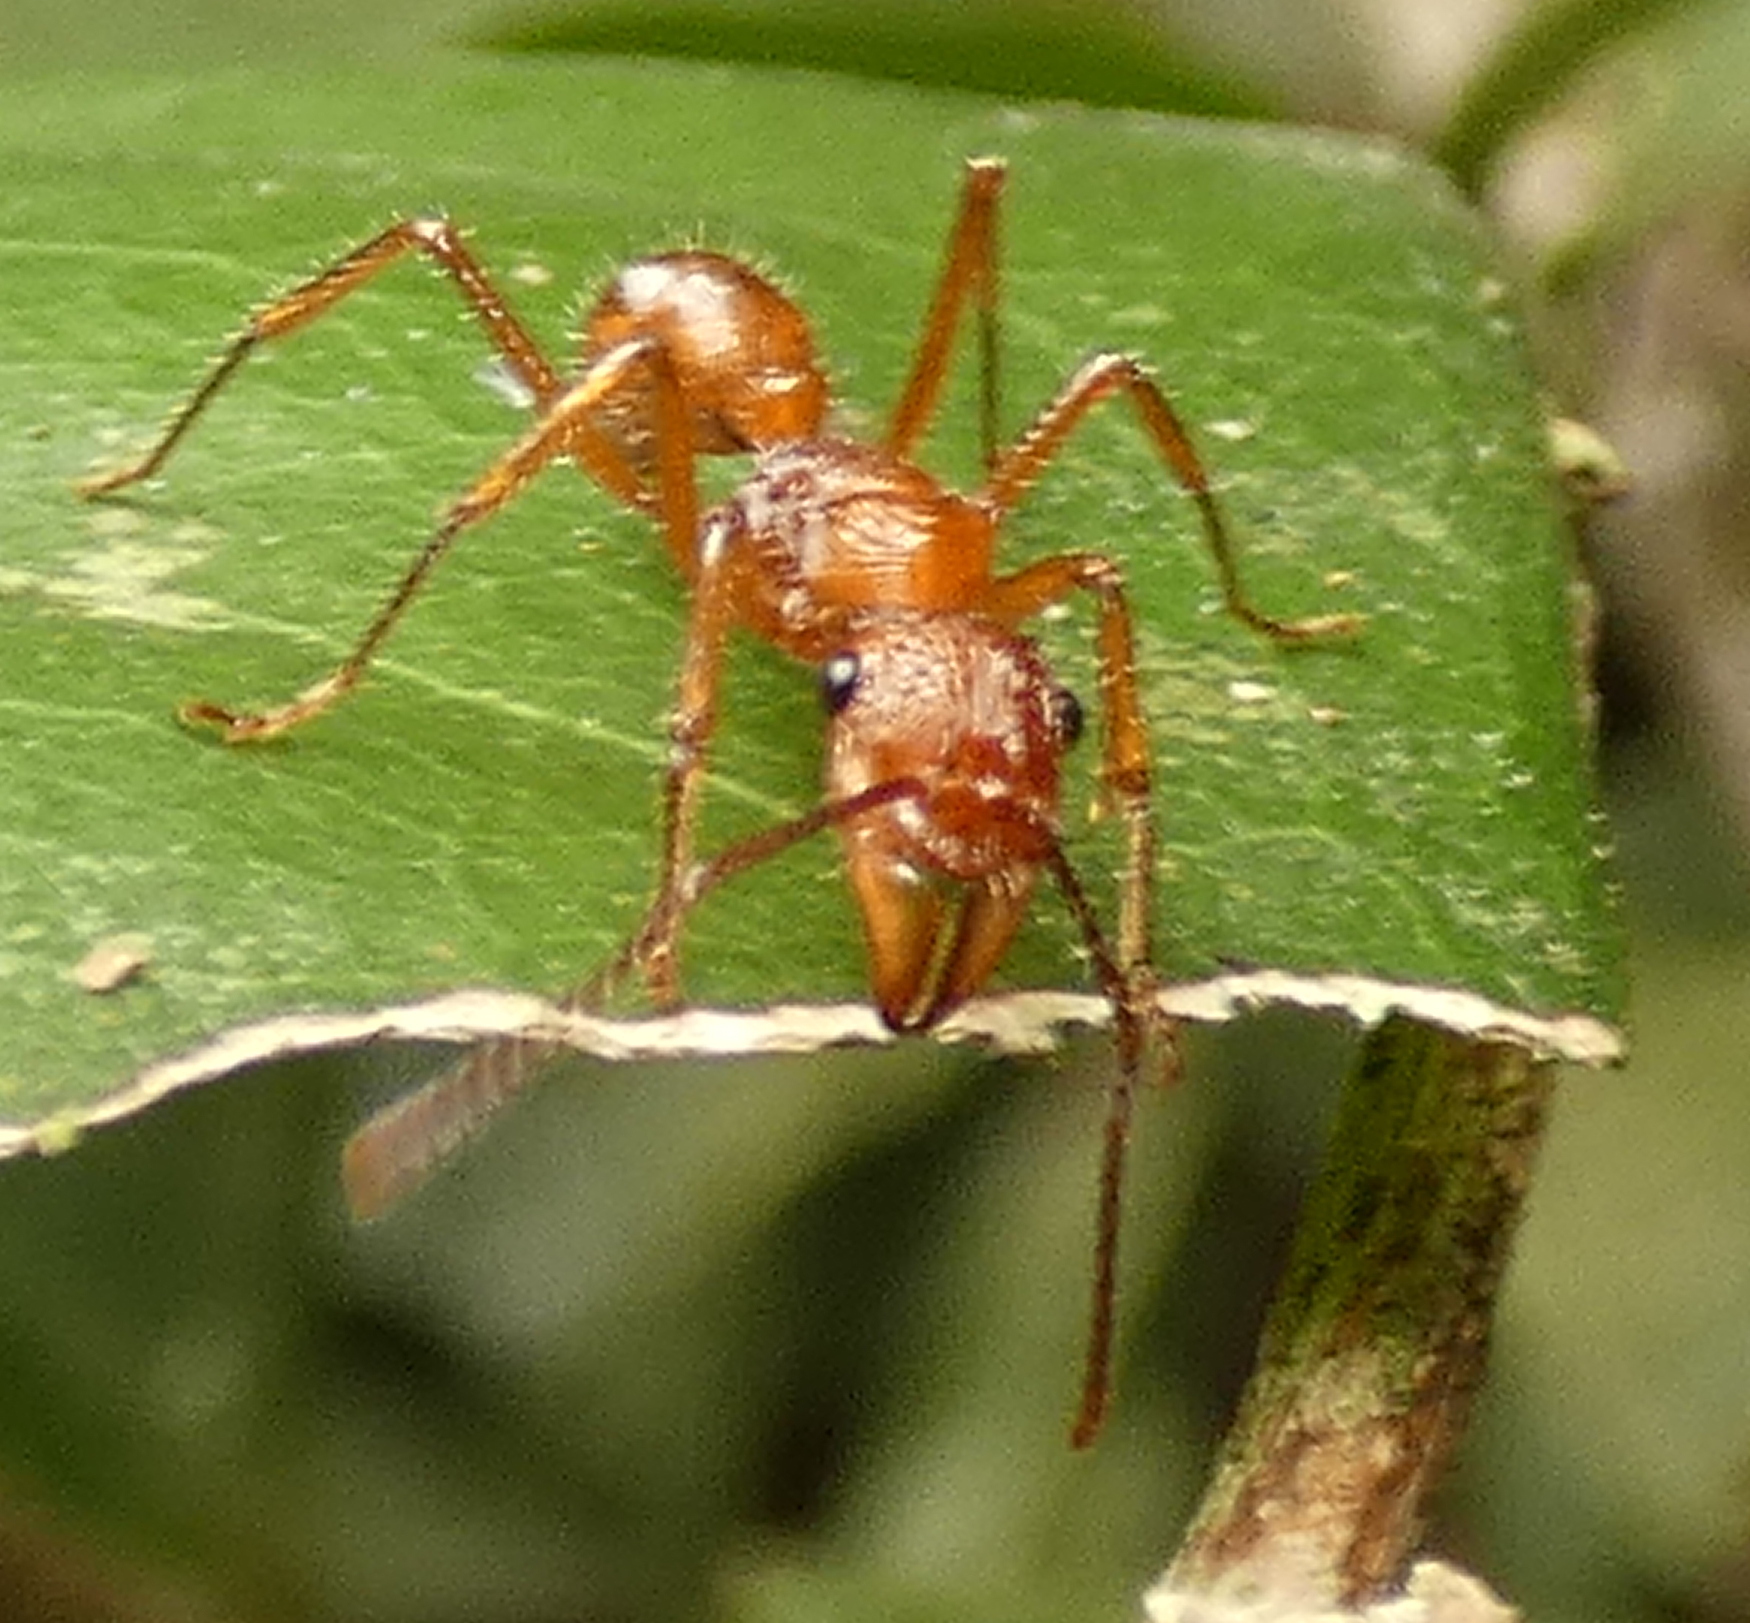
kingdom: Animalia
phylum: Arthropoda
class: Insecta
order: Hymenoptera
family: Formicidae
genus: Ectatomma
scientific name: Ectatomma tuberculatum
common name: Ant
